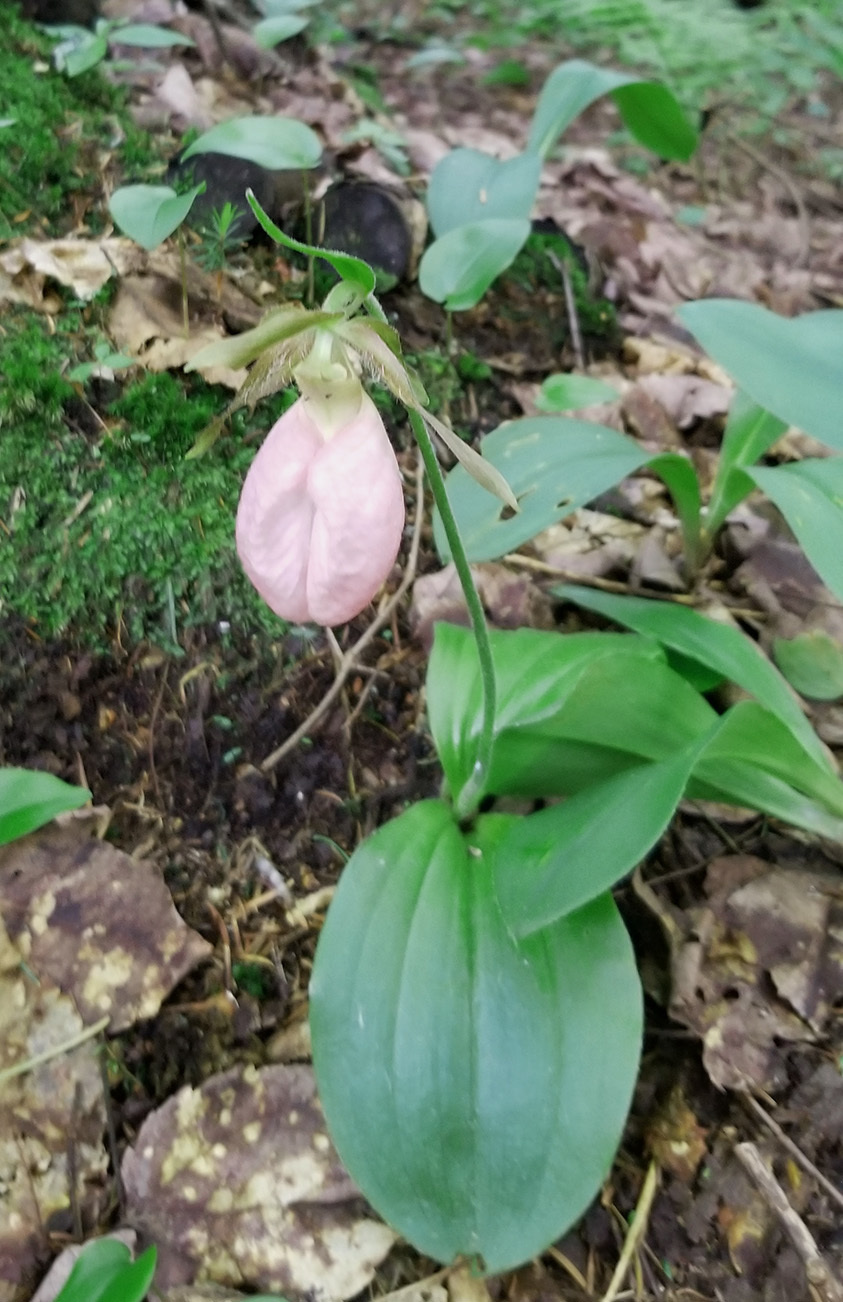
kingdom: Plantae
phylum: Tracheophyta
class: Liliopsida
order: Asparagales
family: Orchidaceae
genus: Cypripedium
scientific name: Cypripedium acaule
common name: Pink lady's-slipper
